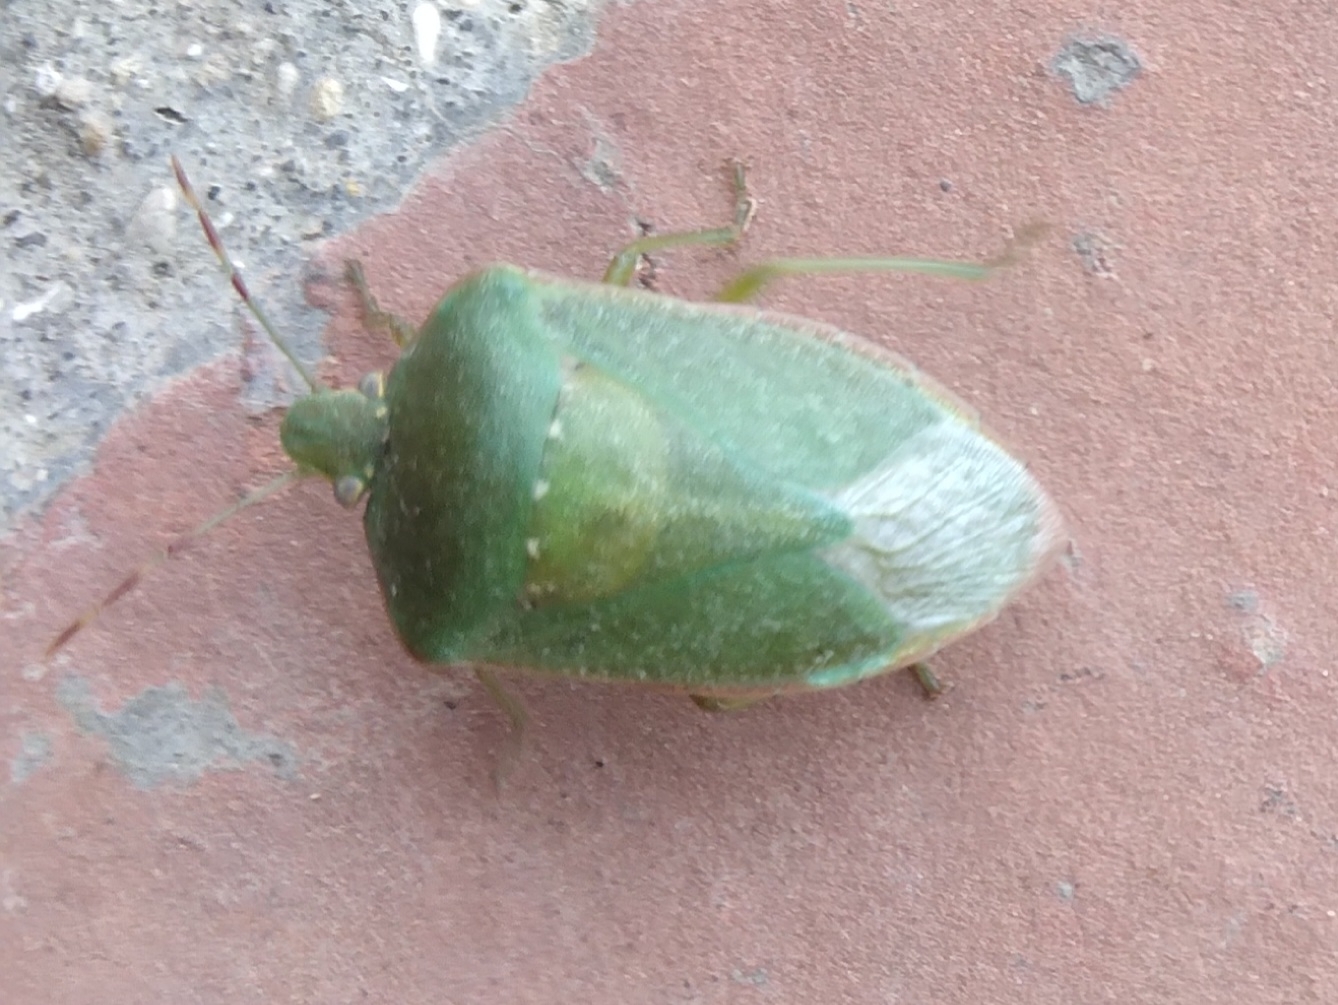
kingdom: Animalia
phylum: Arthropoda
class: Insecta
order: Hemiptera
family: Pentatomidae
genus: Nezara
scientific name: Nezara viridula
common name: Southern green stink bug
